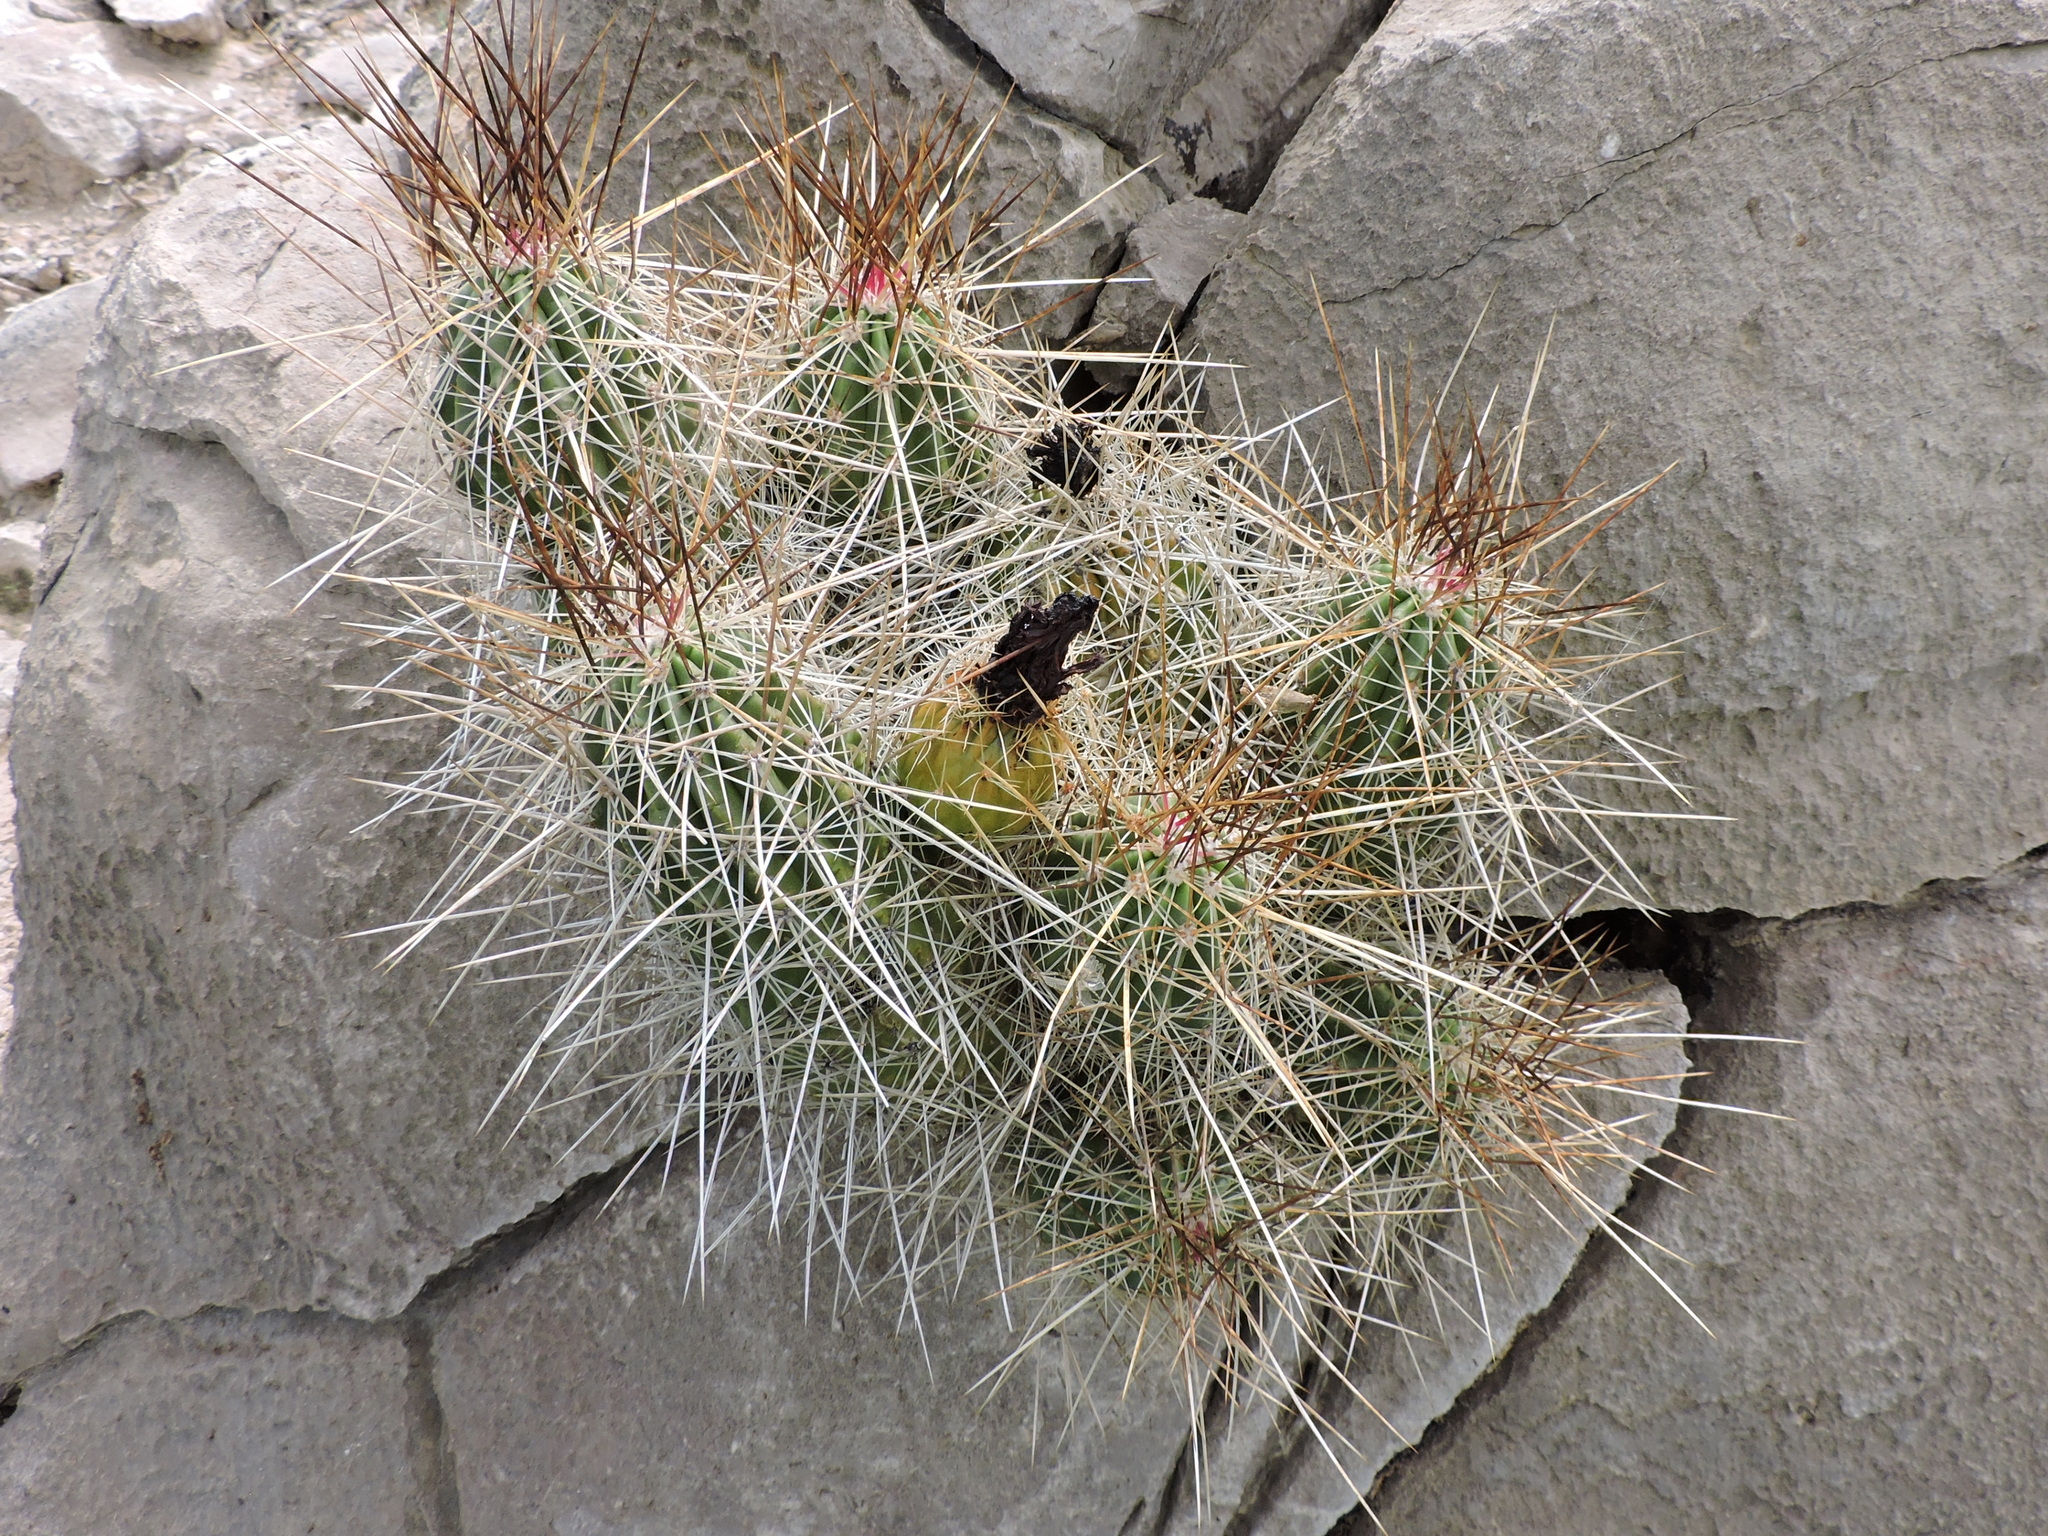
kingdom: Plantae
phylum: Tracheophyta
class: Magnoliopsida
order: Caryophyllales
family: Cactaceae
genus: Echinocereus
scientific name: Echinocereus stramineus
